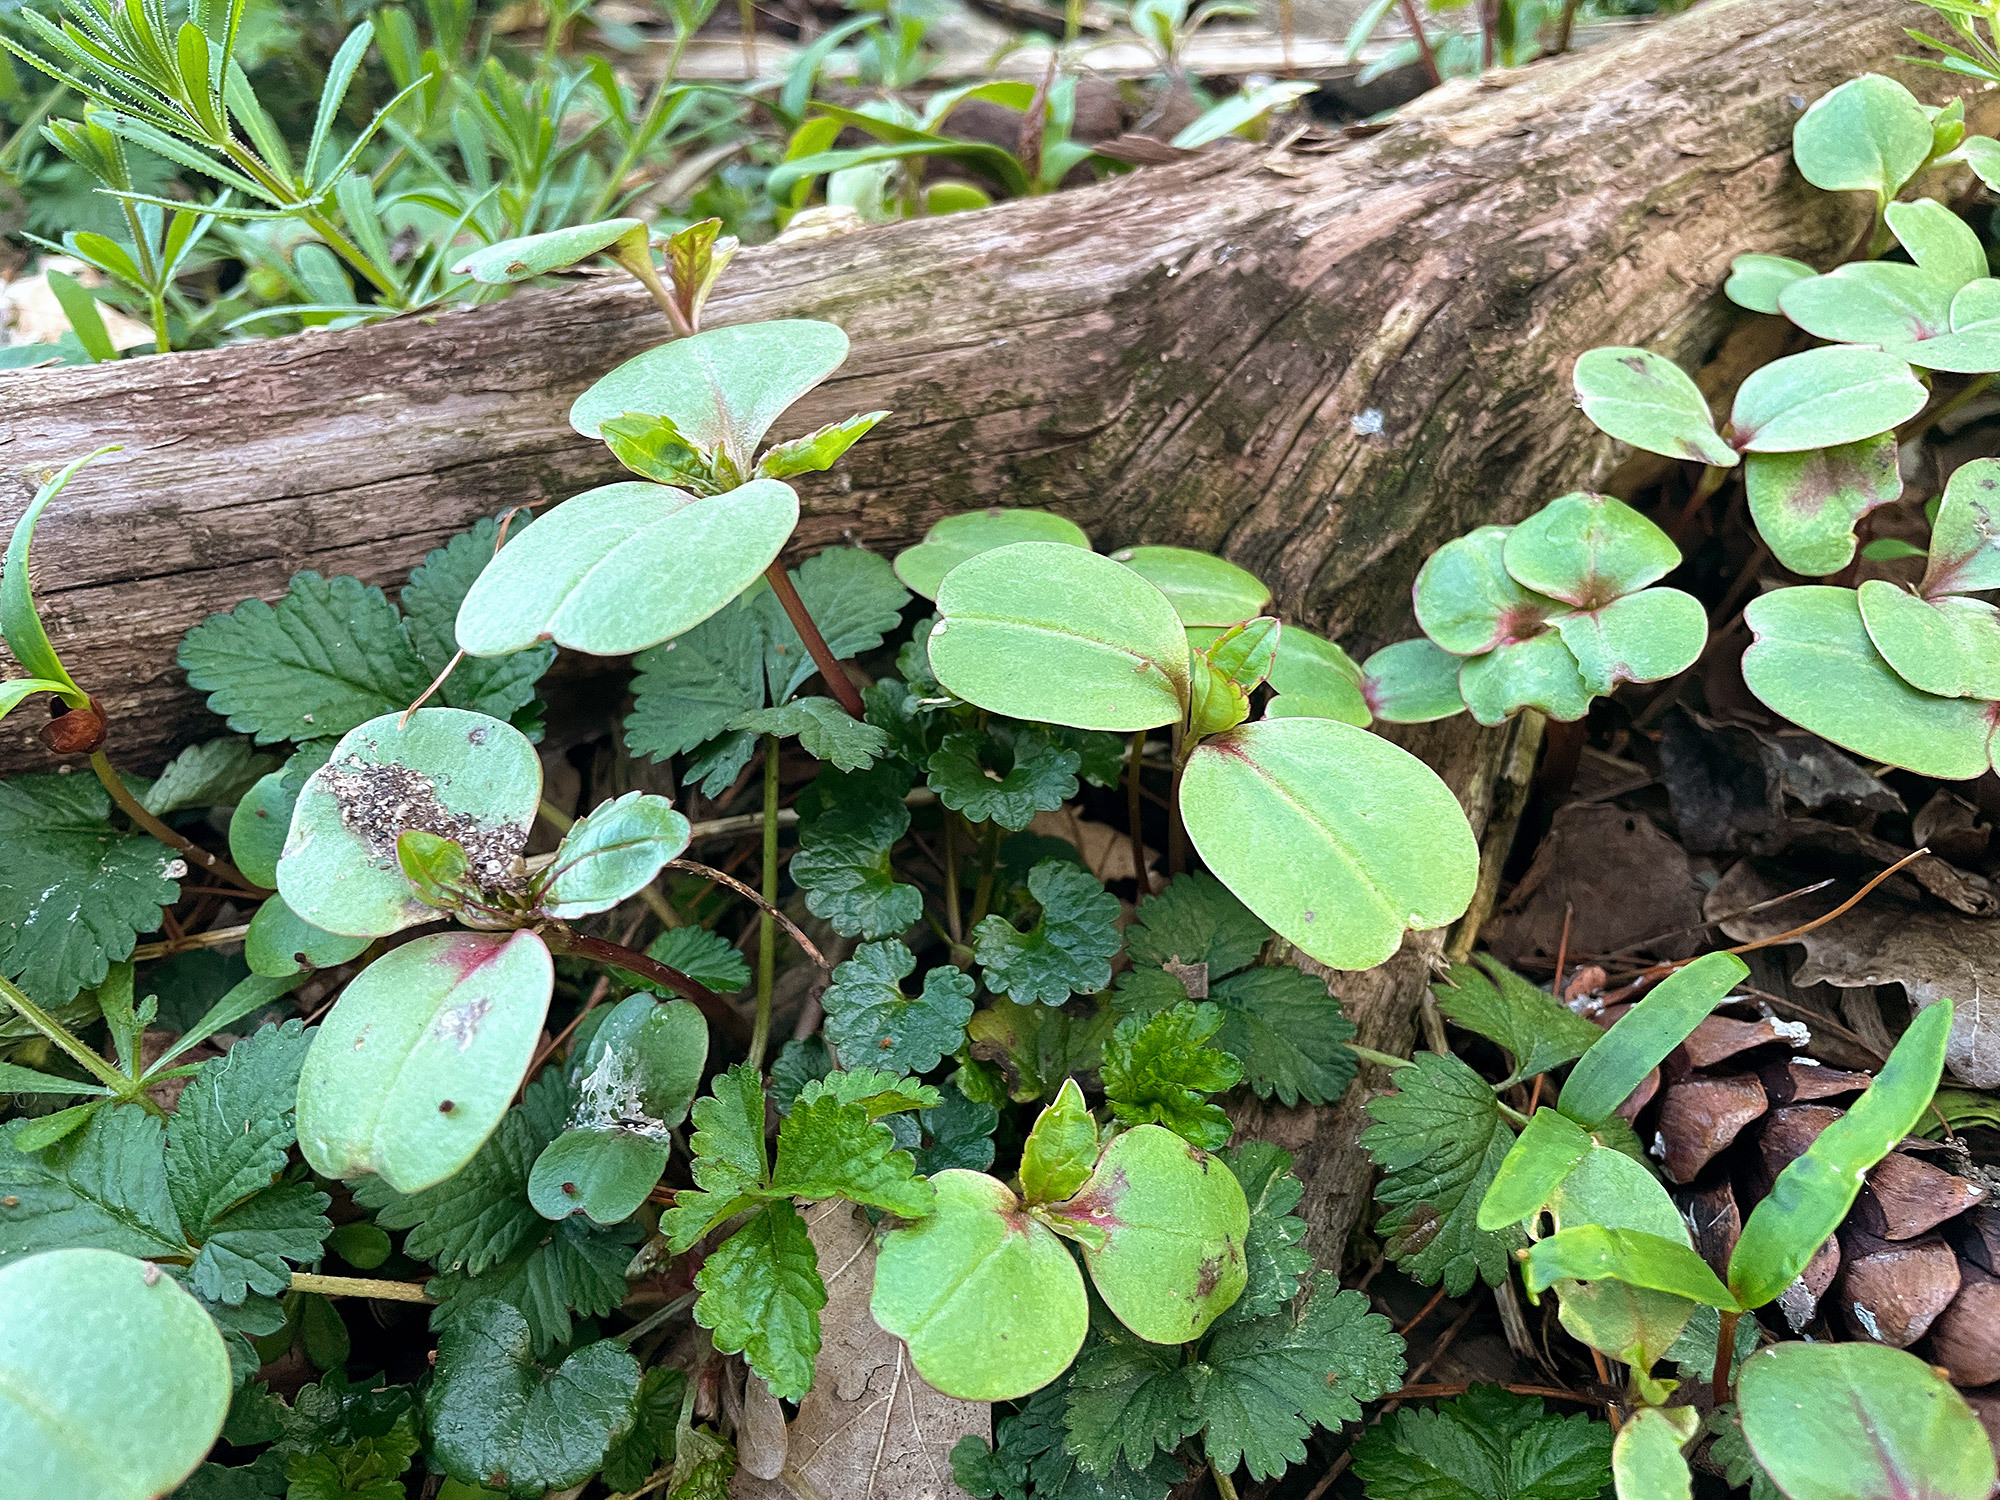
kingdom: Plantae
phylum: Tracheophyta
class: Magnoliopsida
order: Ericales
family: Balsaminaceae
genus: Impatiens
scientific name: Impatiens glandulifera
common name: Himalayan balsam
